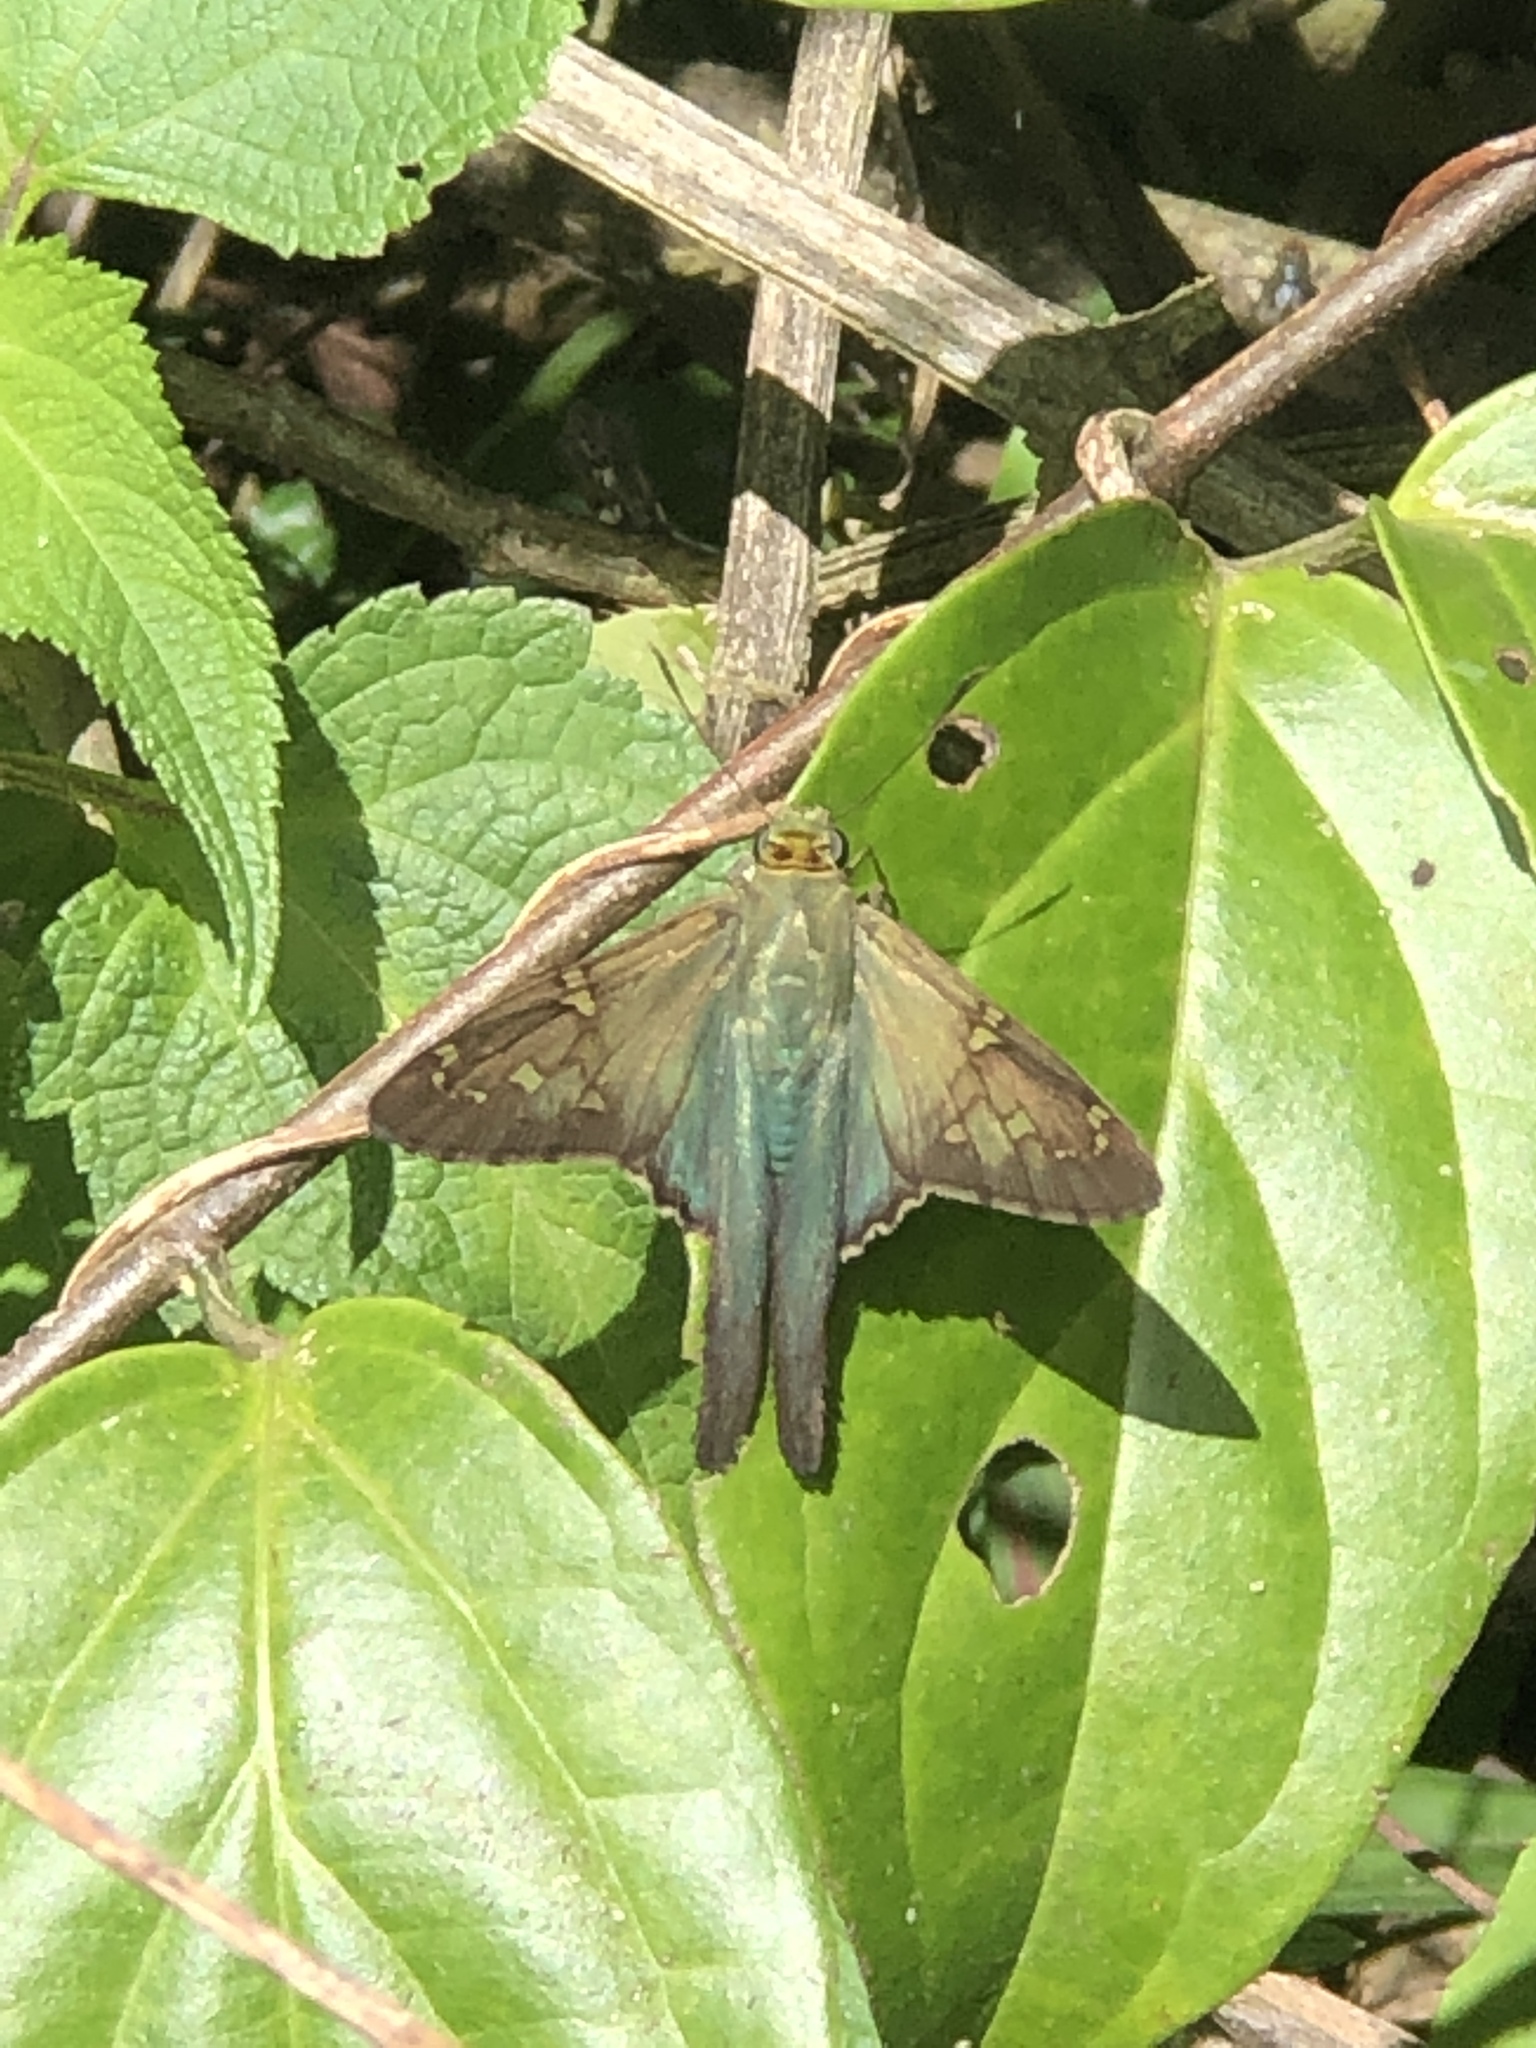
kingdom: Animalia
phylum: Arthropoda
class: Insecta
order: Lepidoptera
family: Hesperiidae
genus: Urbanus
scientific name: Urbanus proteus
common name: Long-tailed skipper
